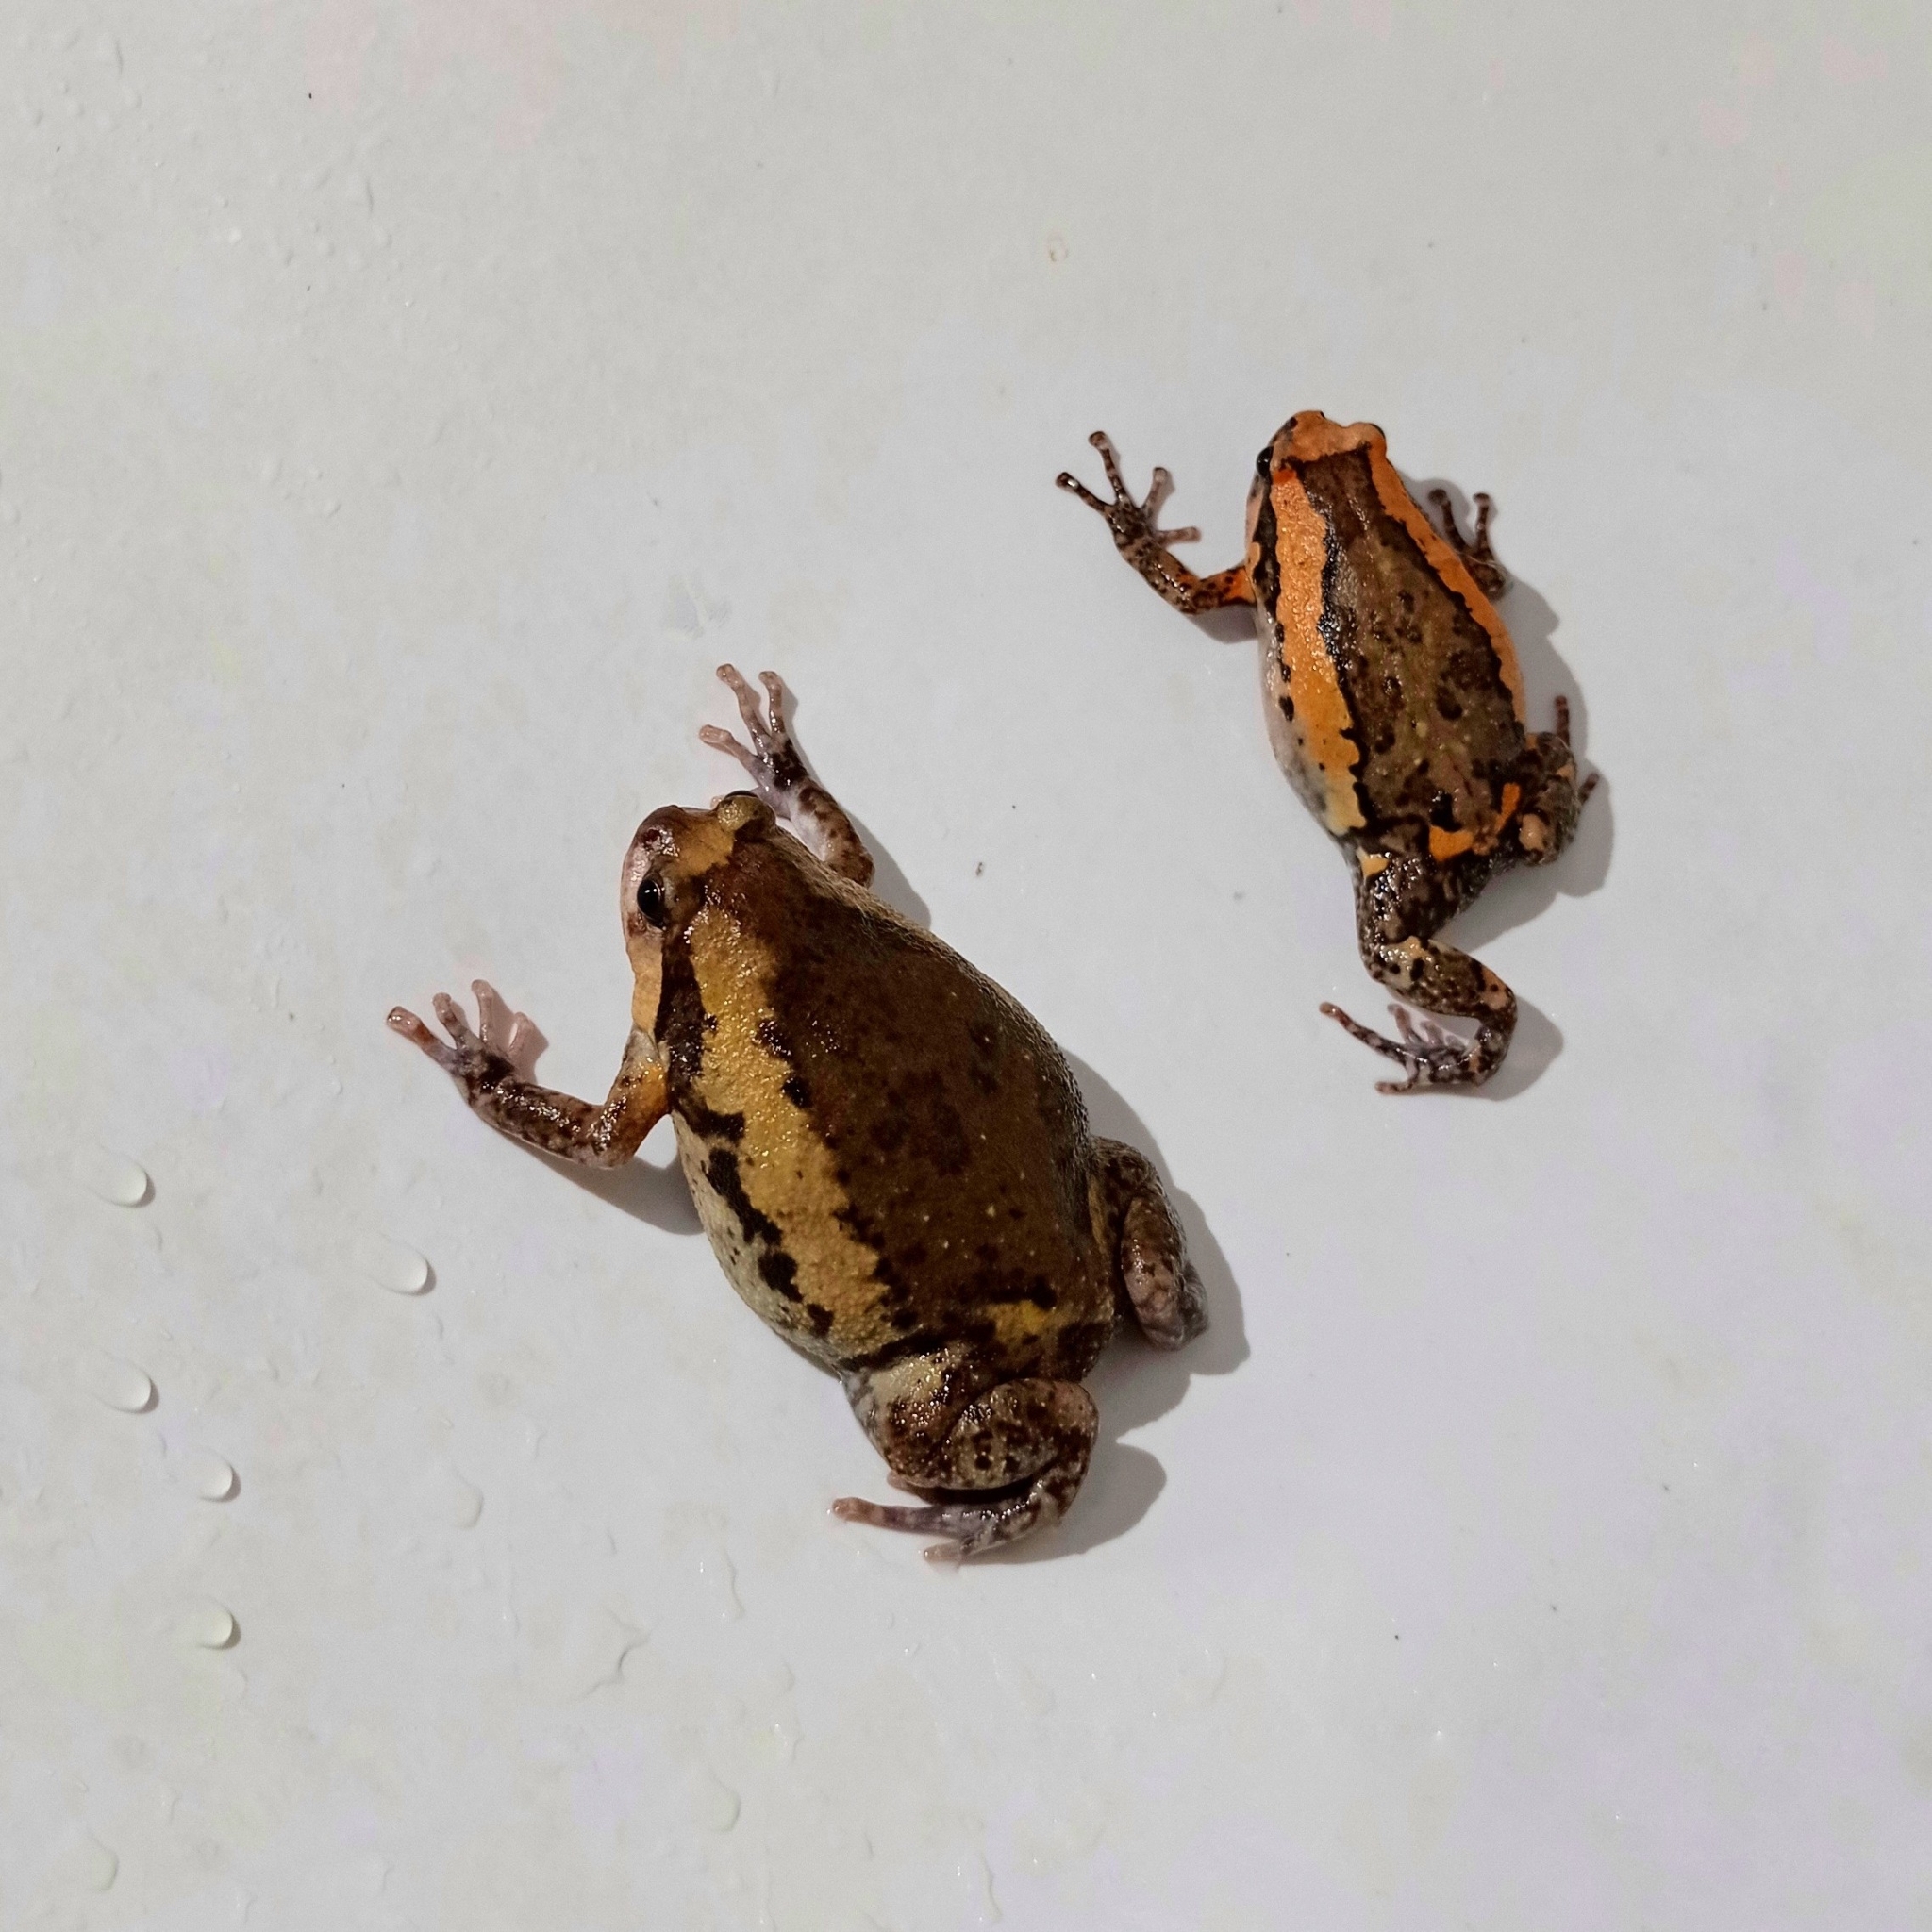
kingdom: Animalia
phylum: Chordata
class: Amphibia
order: Anura
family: Microhylidae
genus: Kaloula
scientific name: Kaloula pulchra
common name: Common,banded bullfrog
